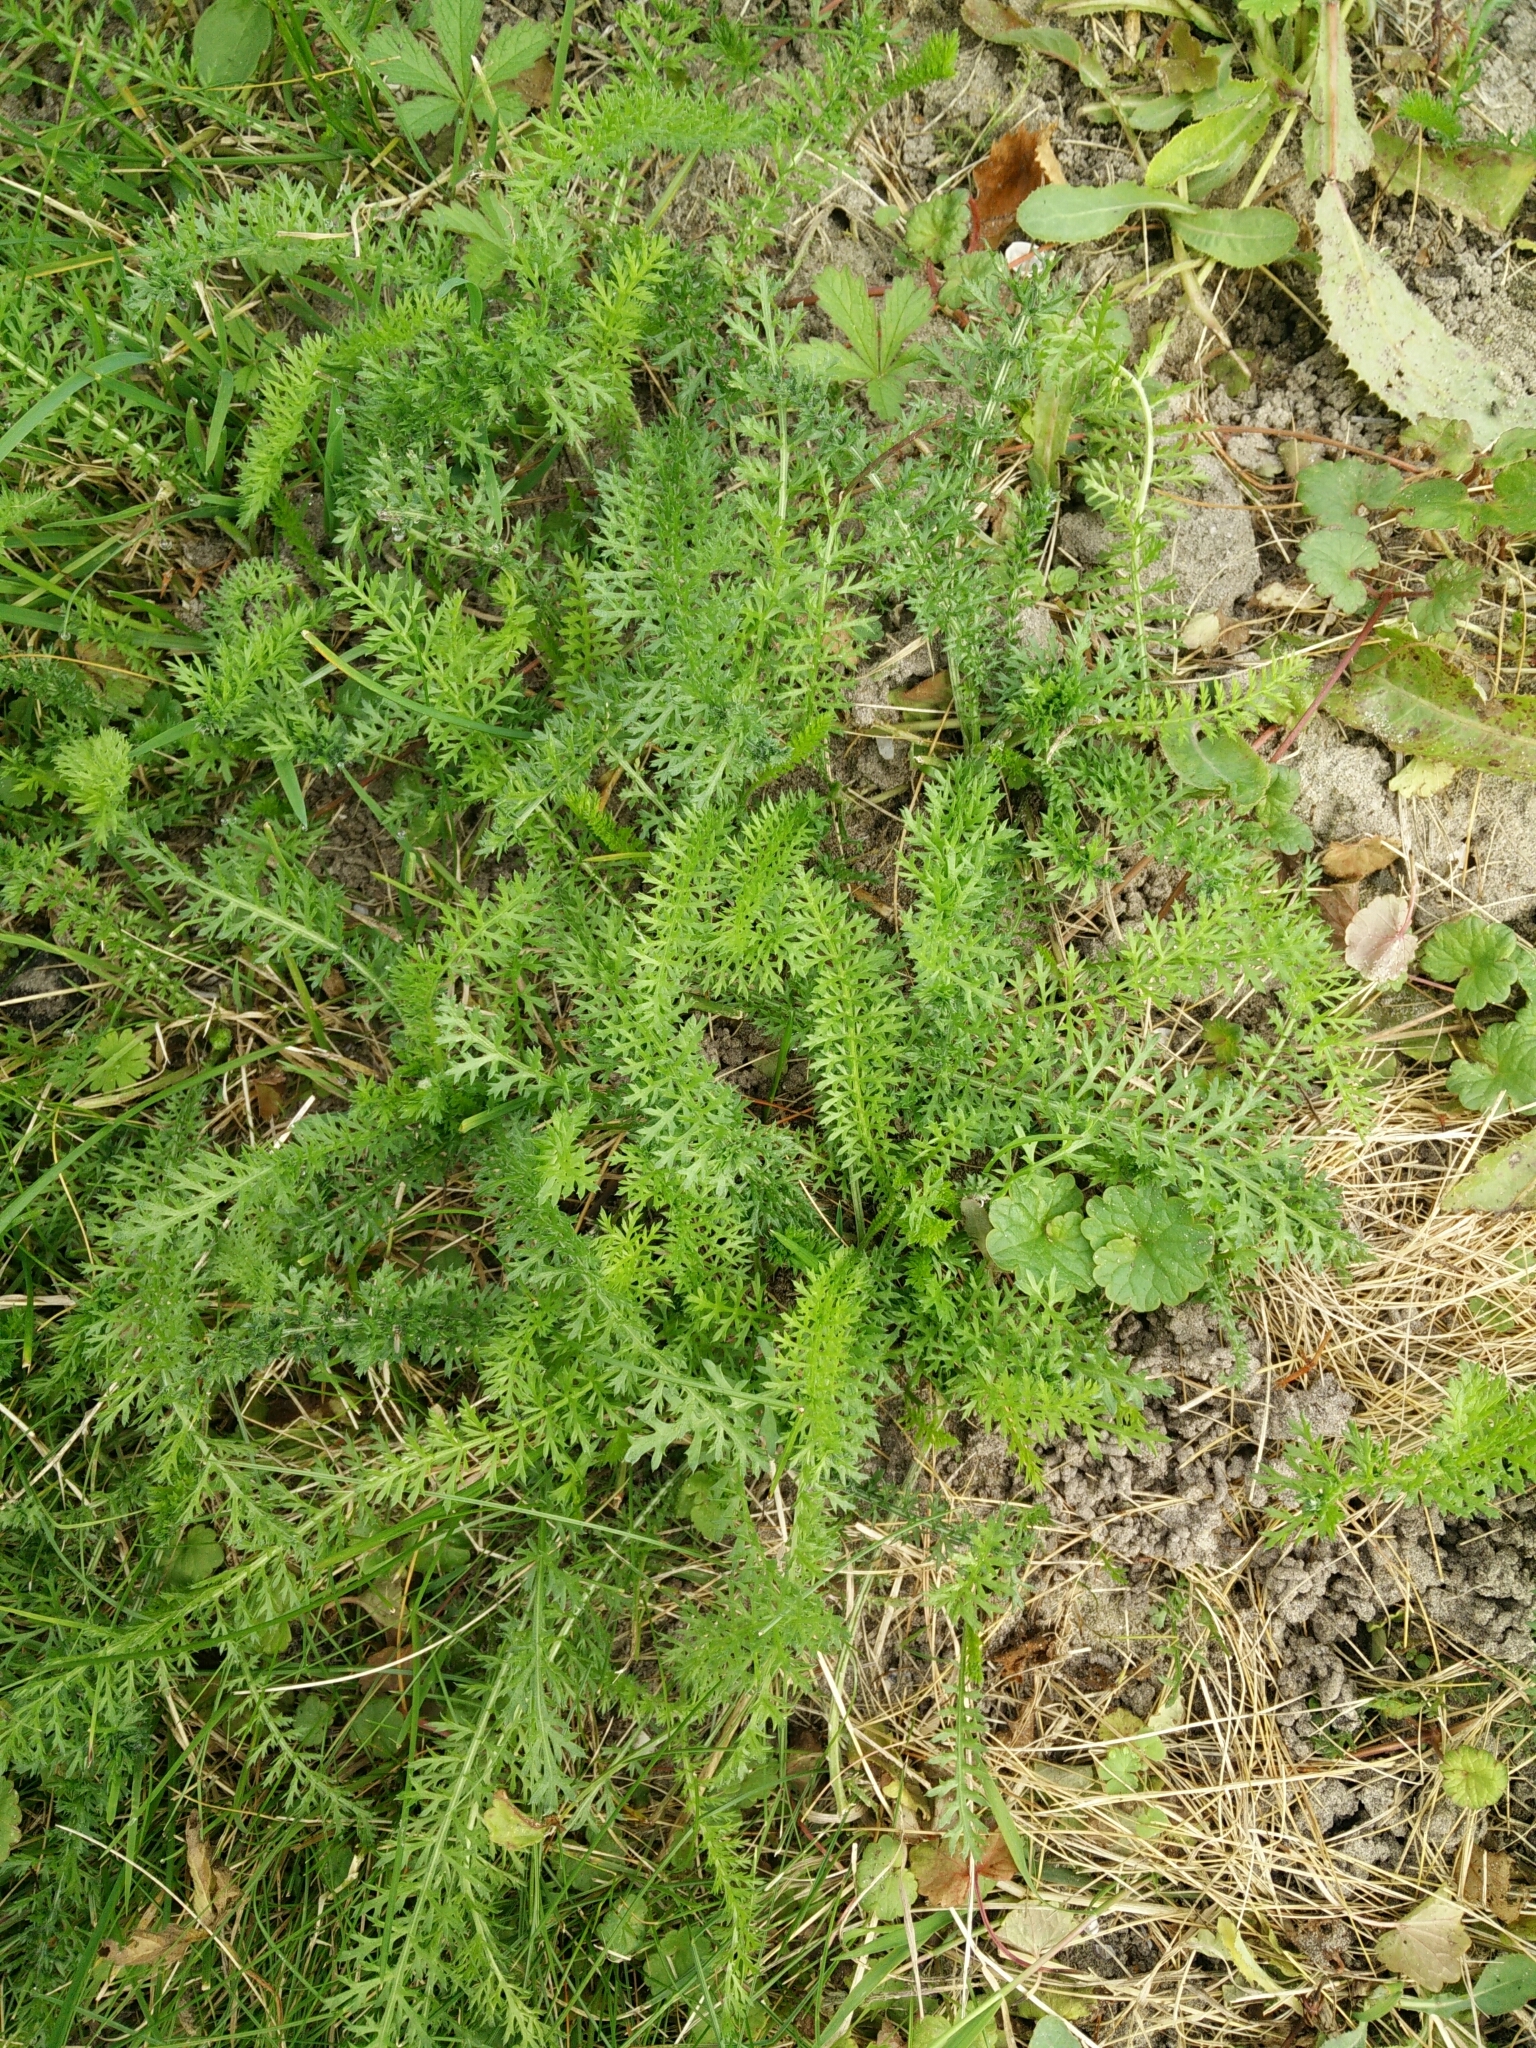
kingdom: Plantae
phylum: Tracheophyta
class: Magnoliopsida
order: Asterales
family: Asteraceae
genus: Achillea
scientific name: Achillea millefolium
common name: Yarrow
